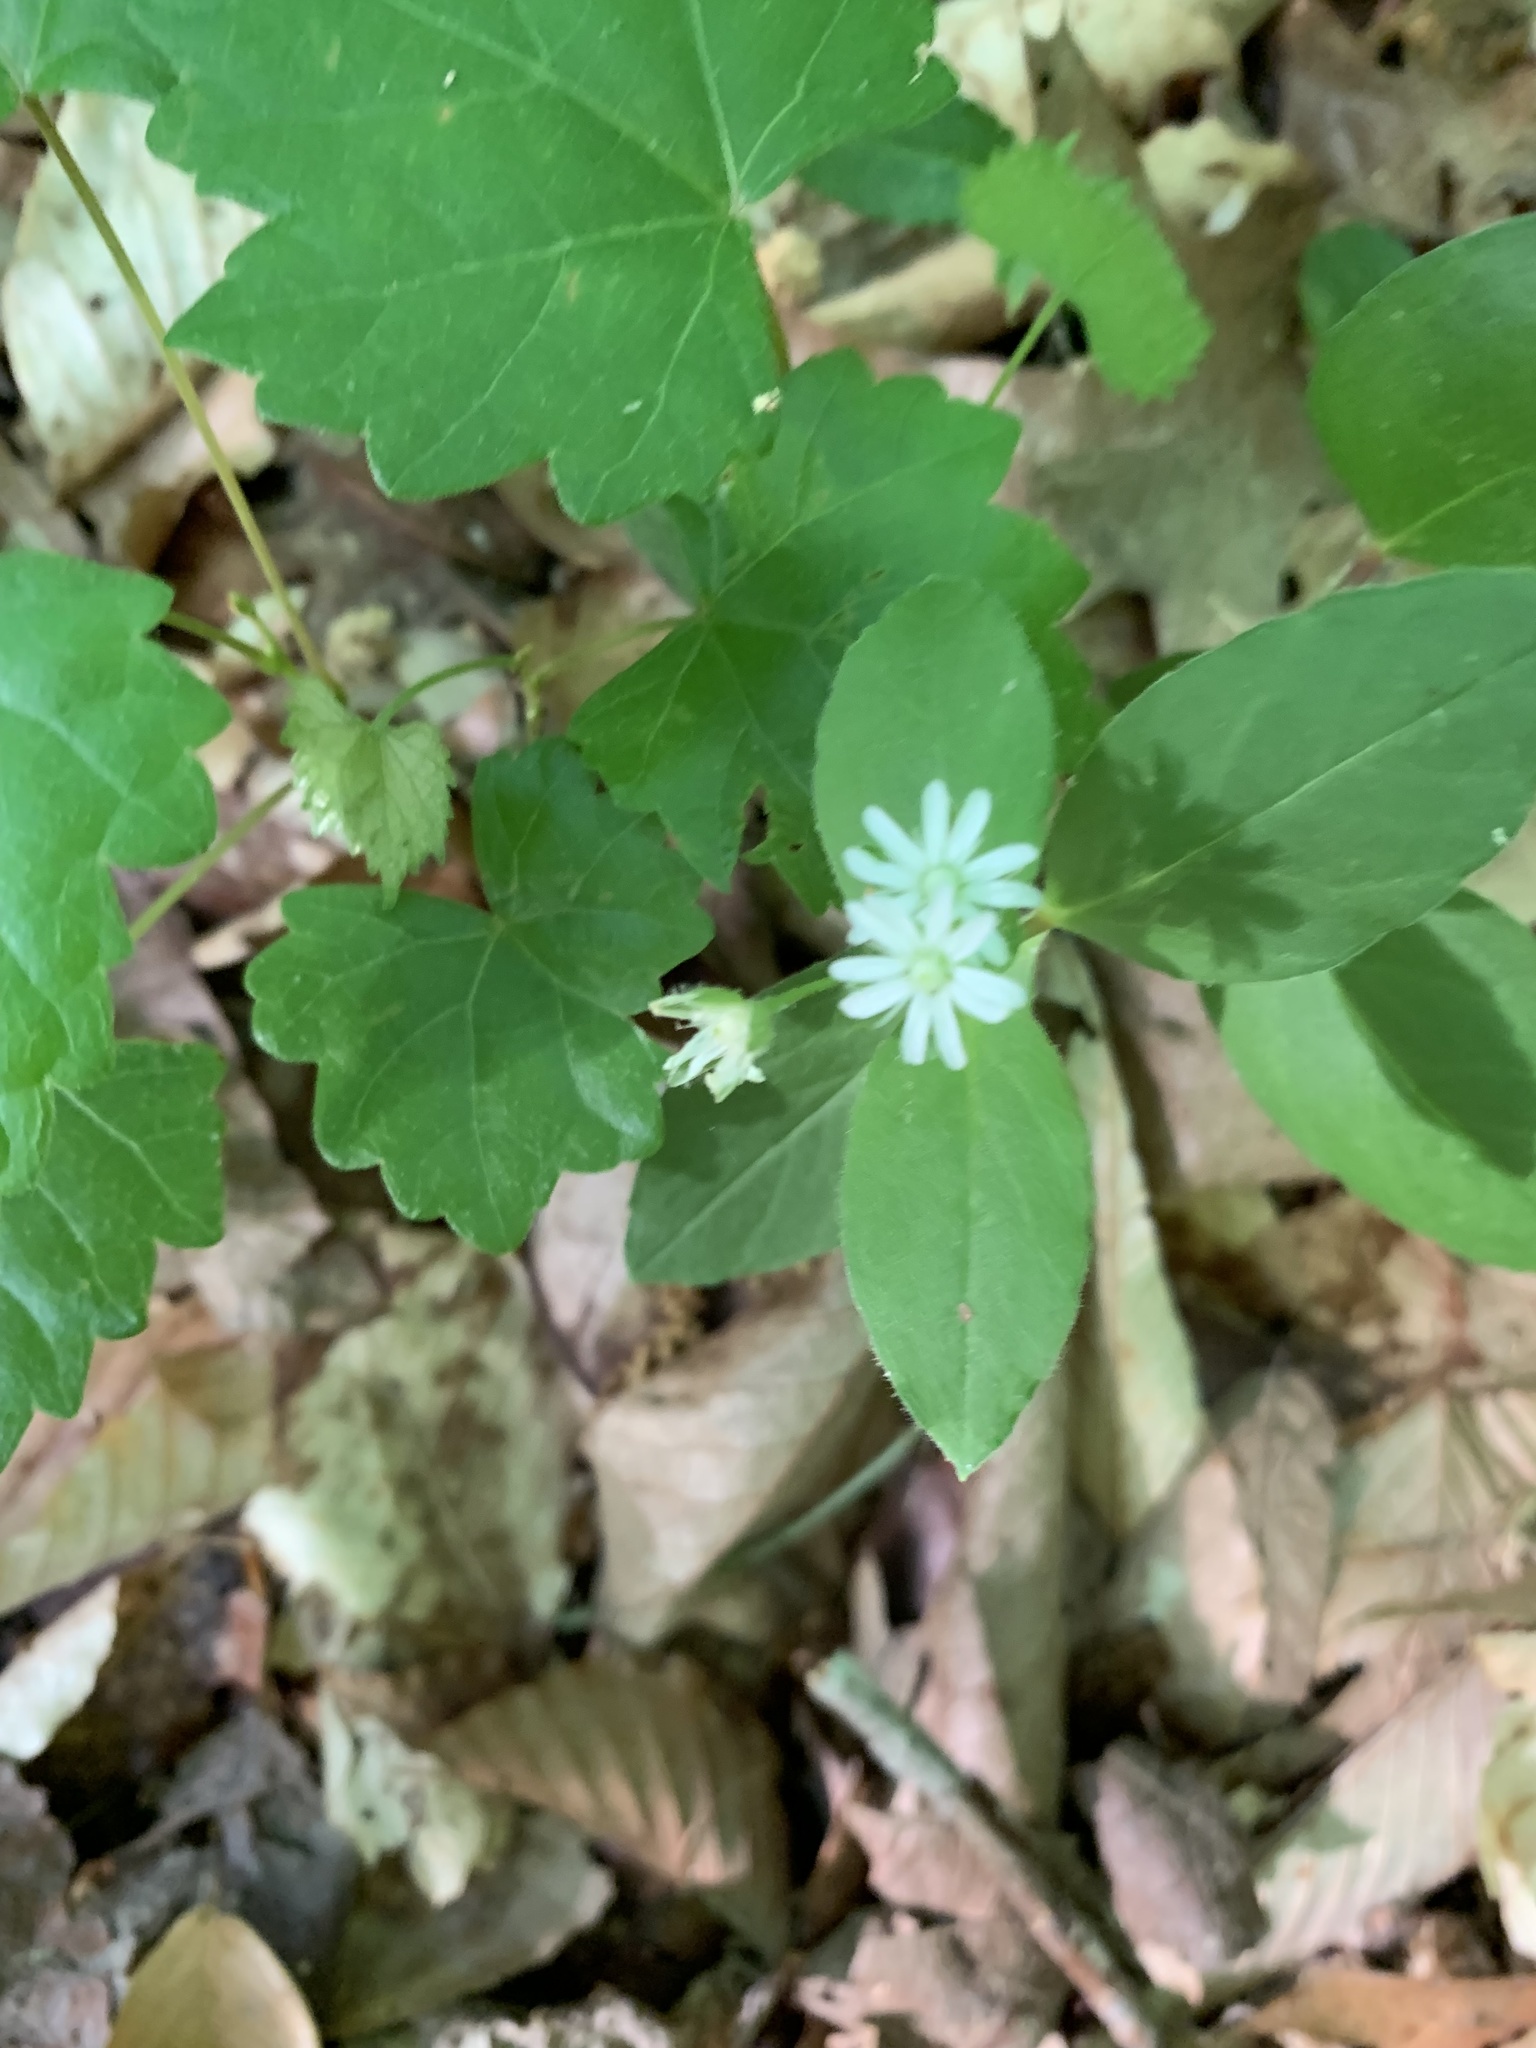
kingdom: Plantae
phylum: Tracheophyta
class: Magnoliopsida
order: Caryophyllales
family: Caryophyllaceae
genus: Stellaria
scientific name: Stellaria pubera
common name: Star chickweed
